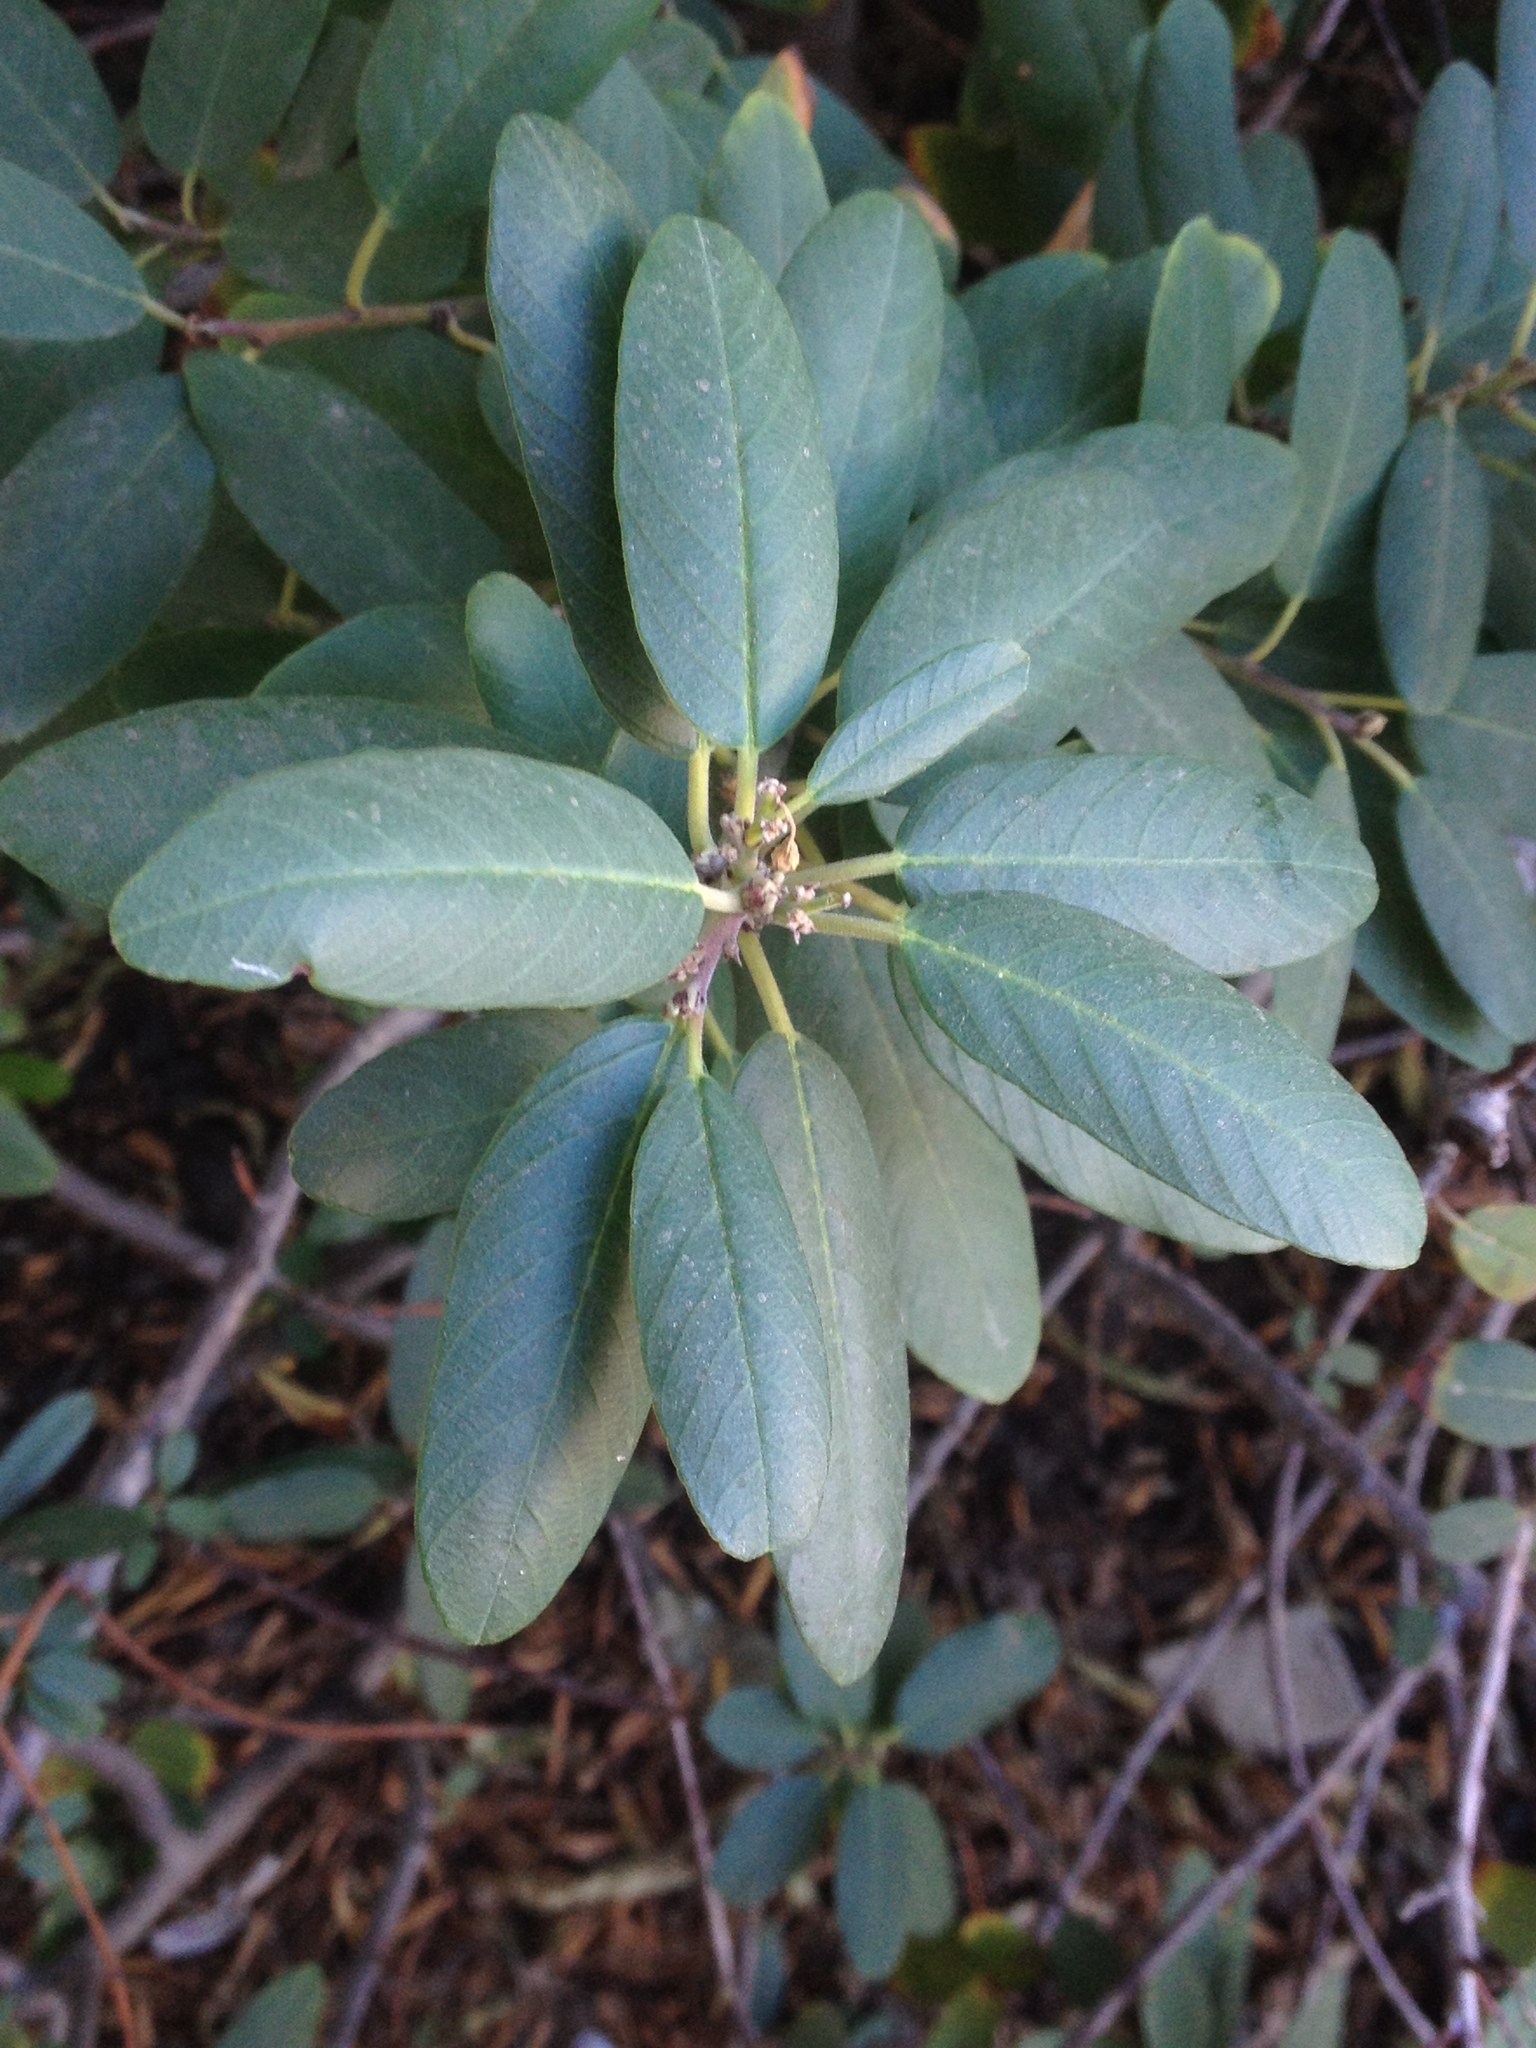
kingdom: Plantae
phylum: Tracheophyta
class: Magnoliopsida
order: Rosales
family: Rhamnaceae
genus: Frangula
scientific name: Frangula californica
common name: California buckthorn
